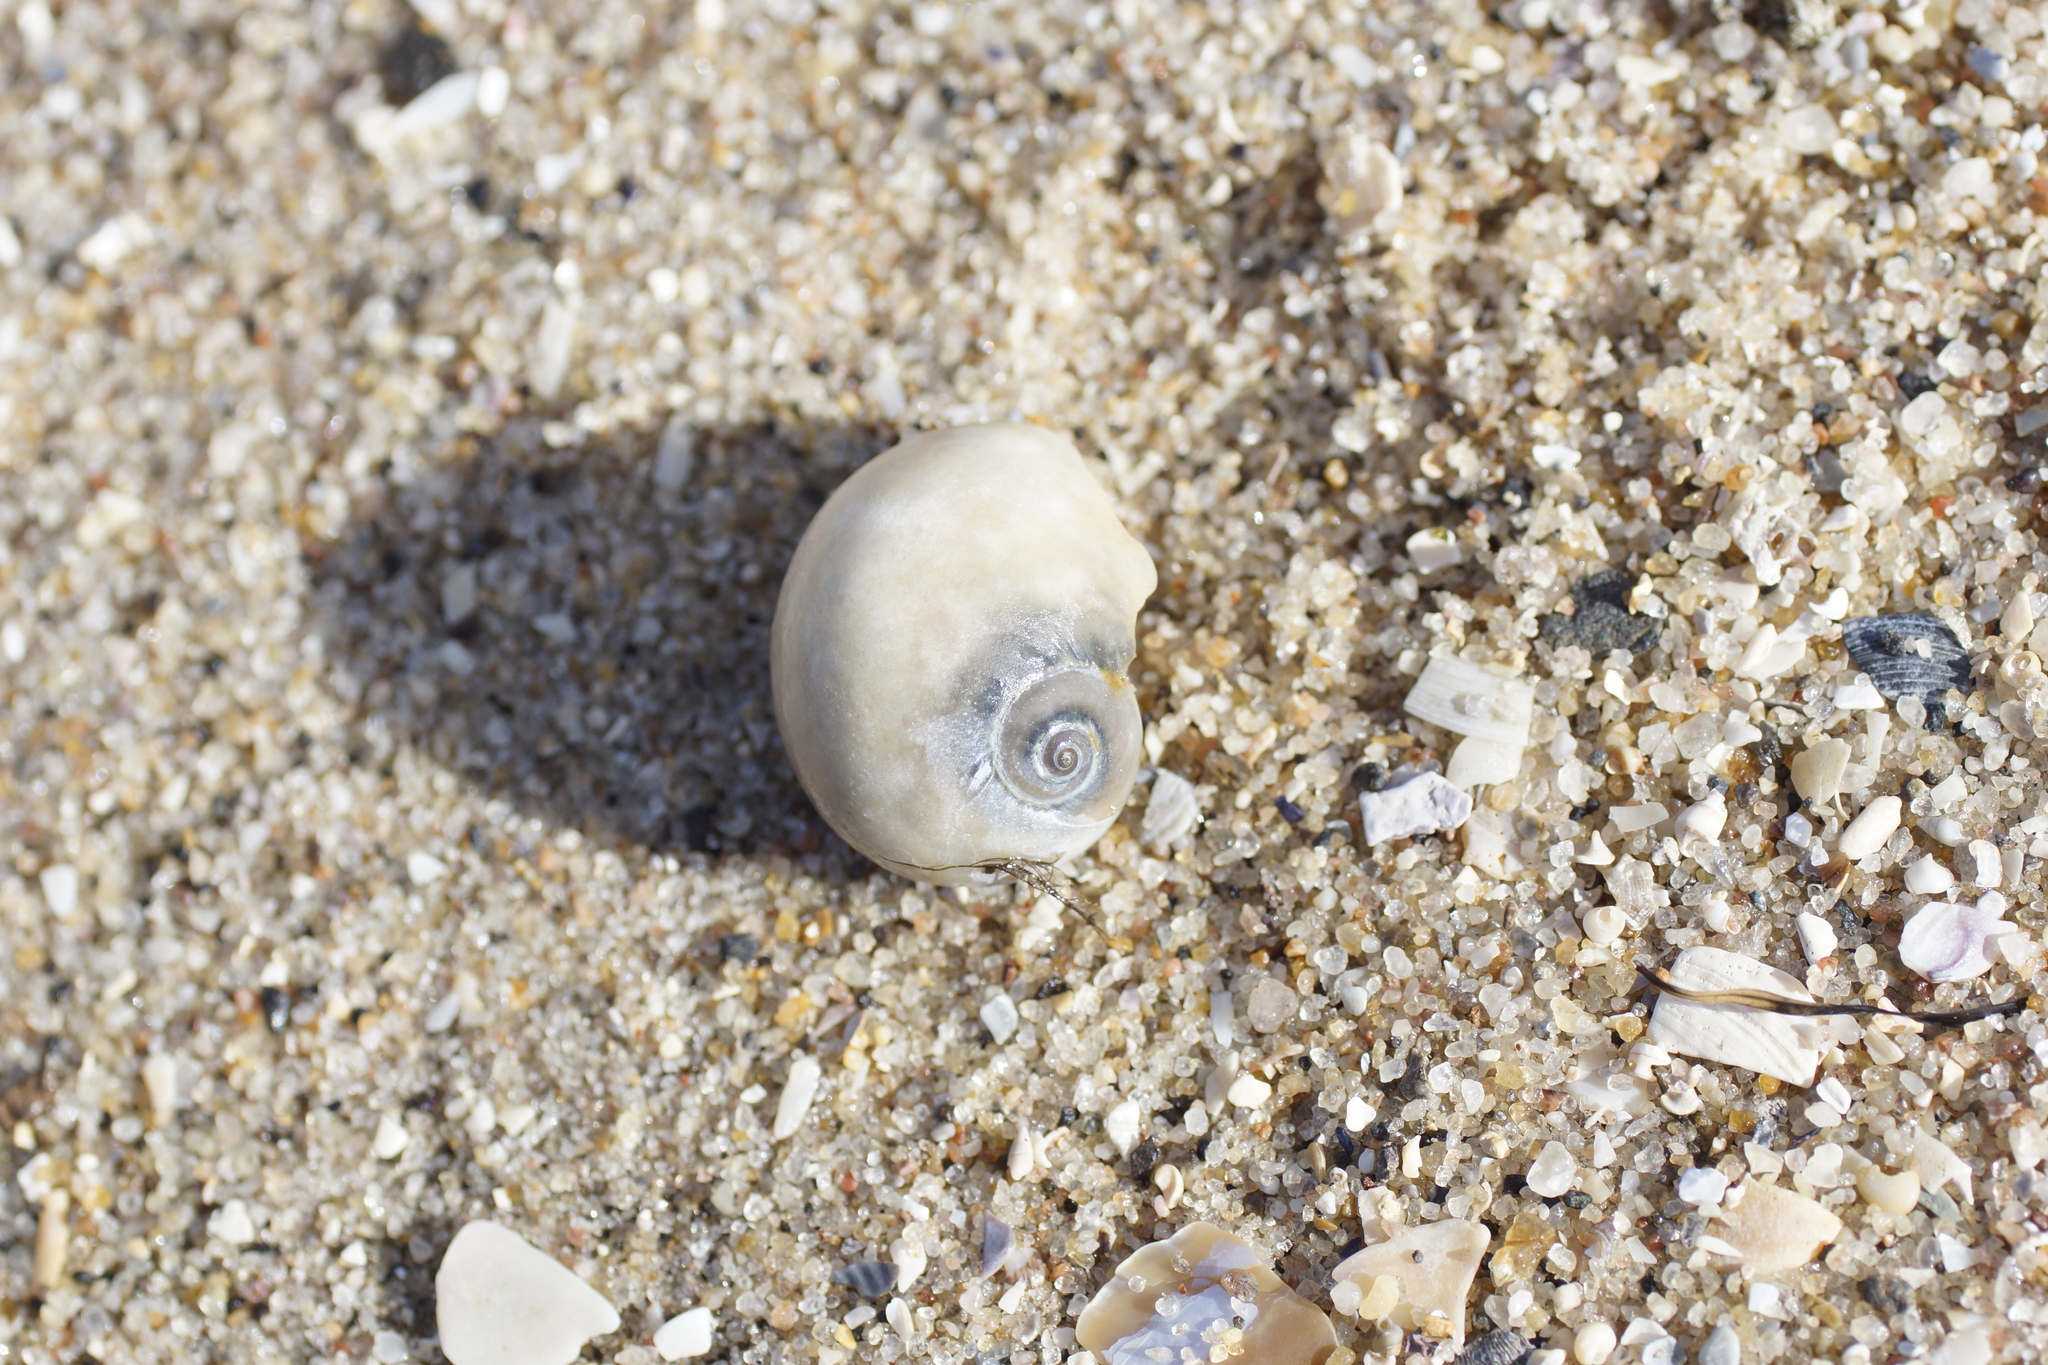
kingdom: Animalia
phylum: Mollusca
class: Gastropoda
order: Littorinimorpha
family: Naticidae
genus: Neverita
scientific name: Neverita didyma
